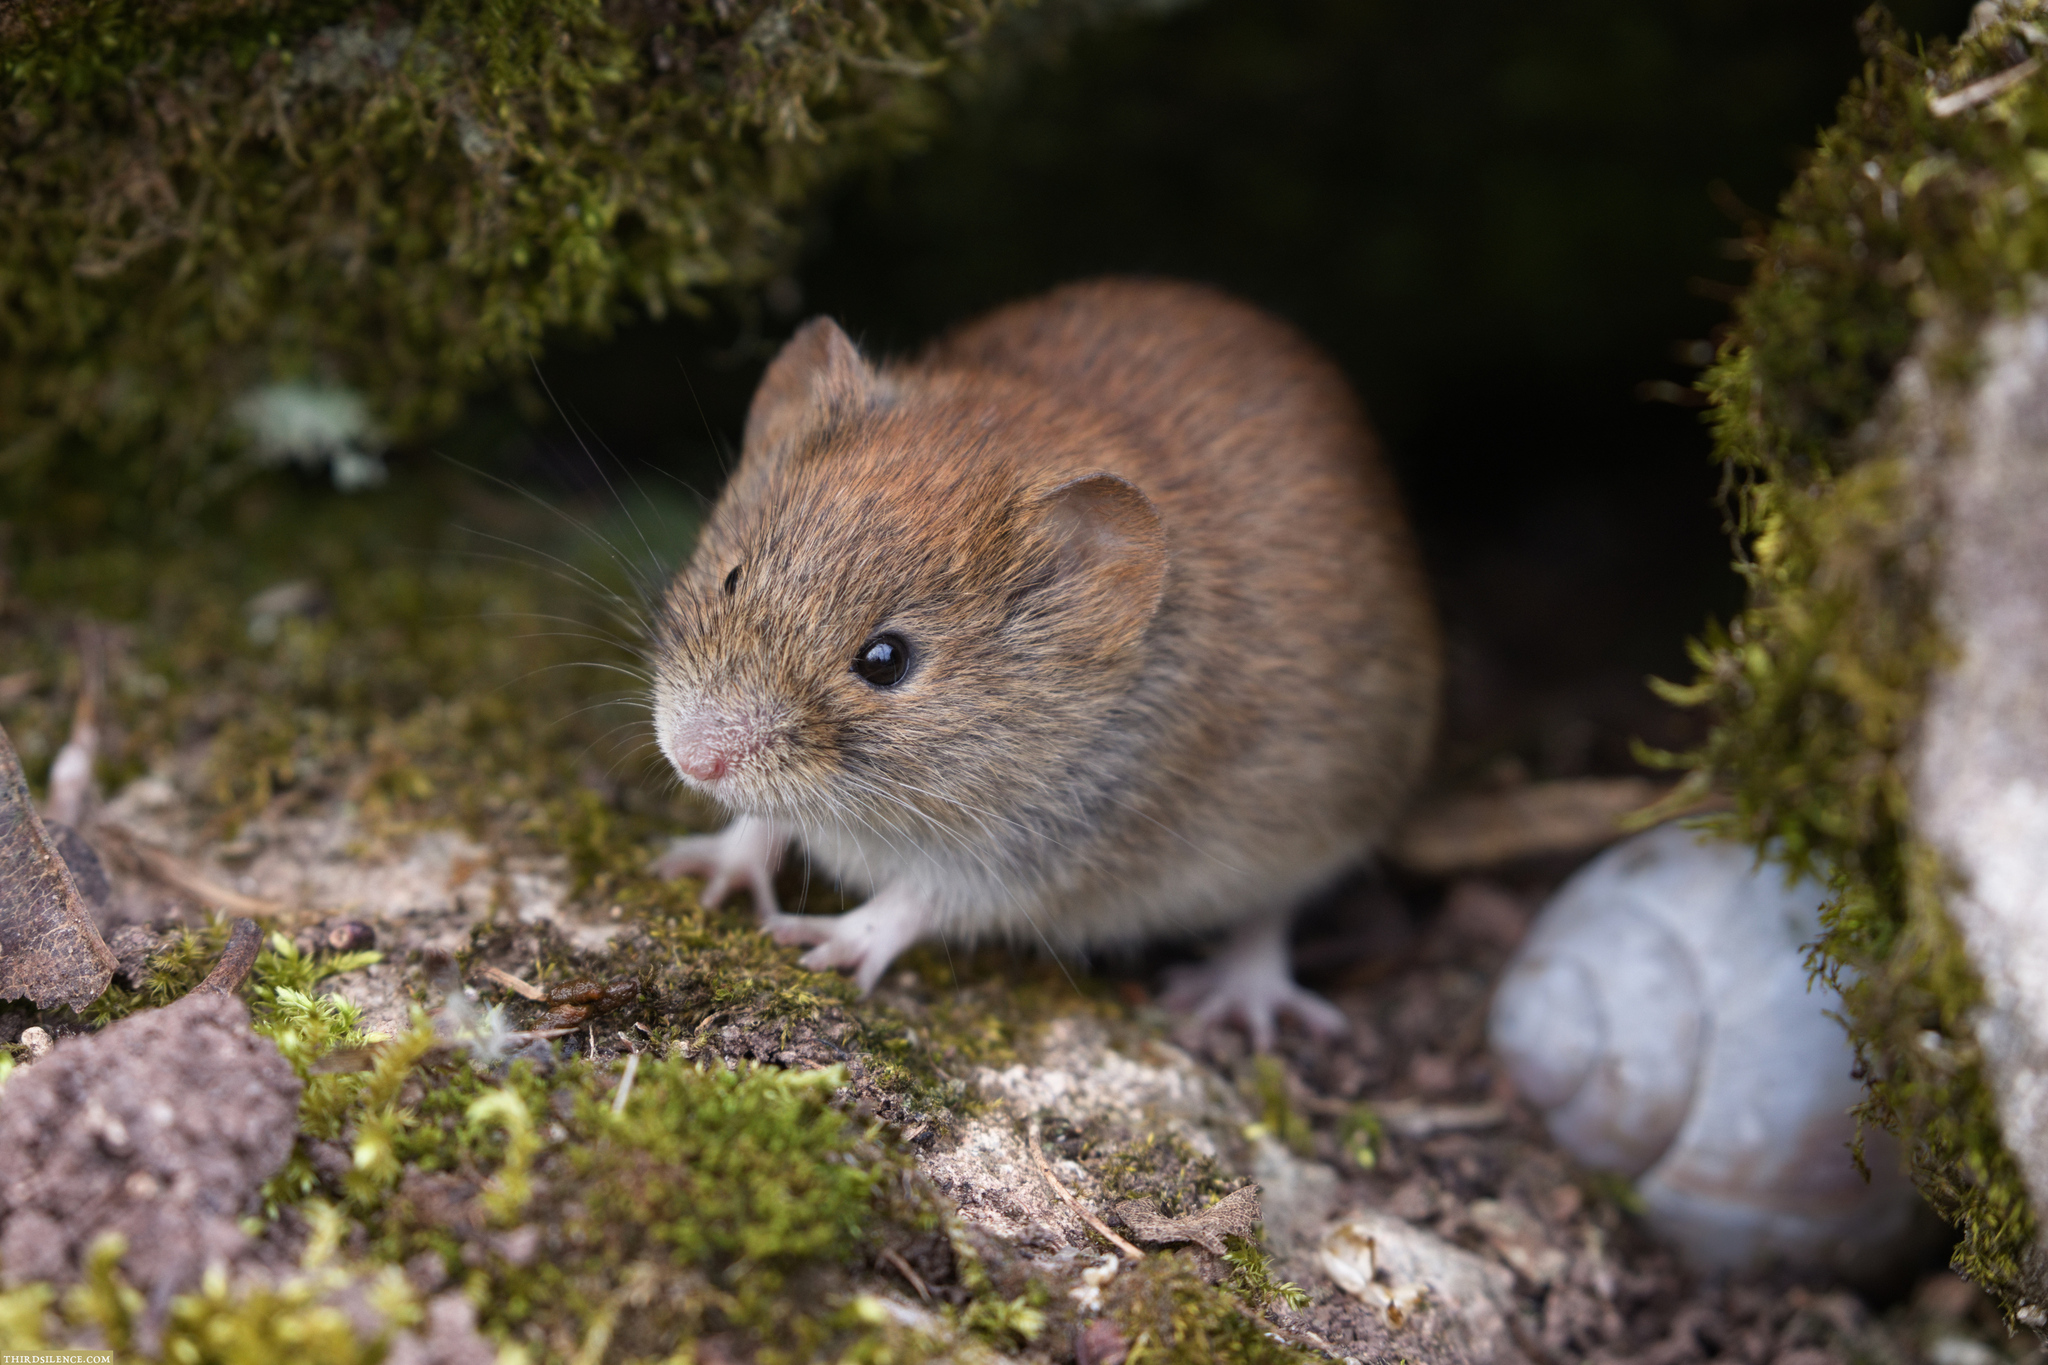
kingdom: Animalia
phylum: Chordata
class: Mammalia
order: Rodentia
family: Cricetidae
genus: Myodes
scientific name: Myodes glareolus
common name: Bank vole
